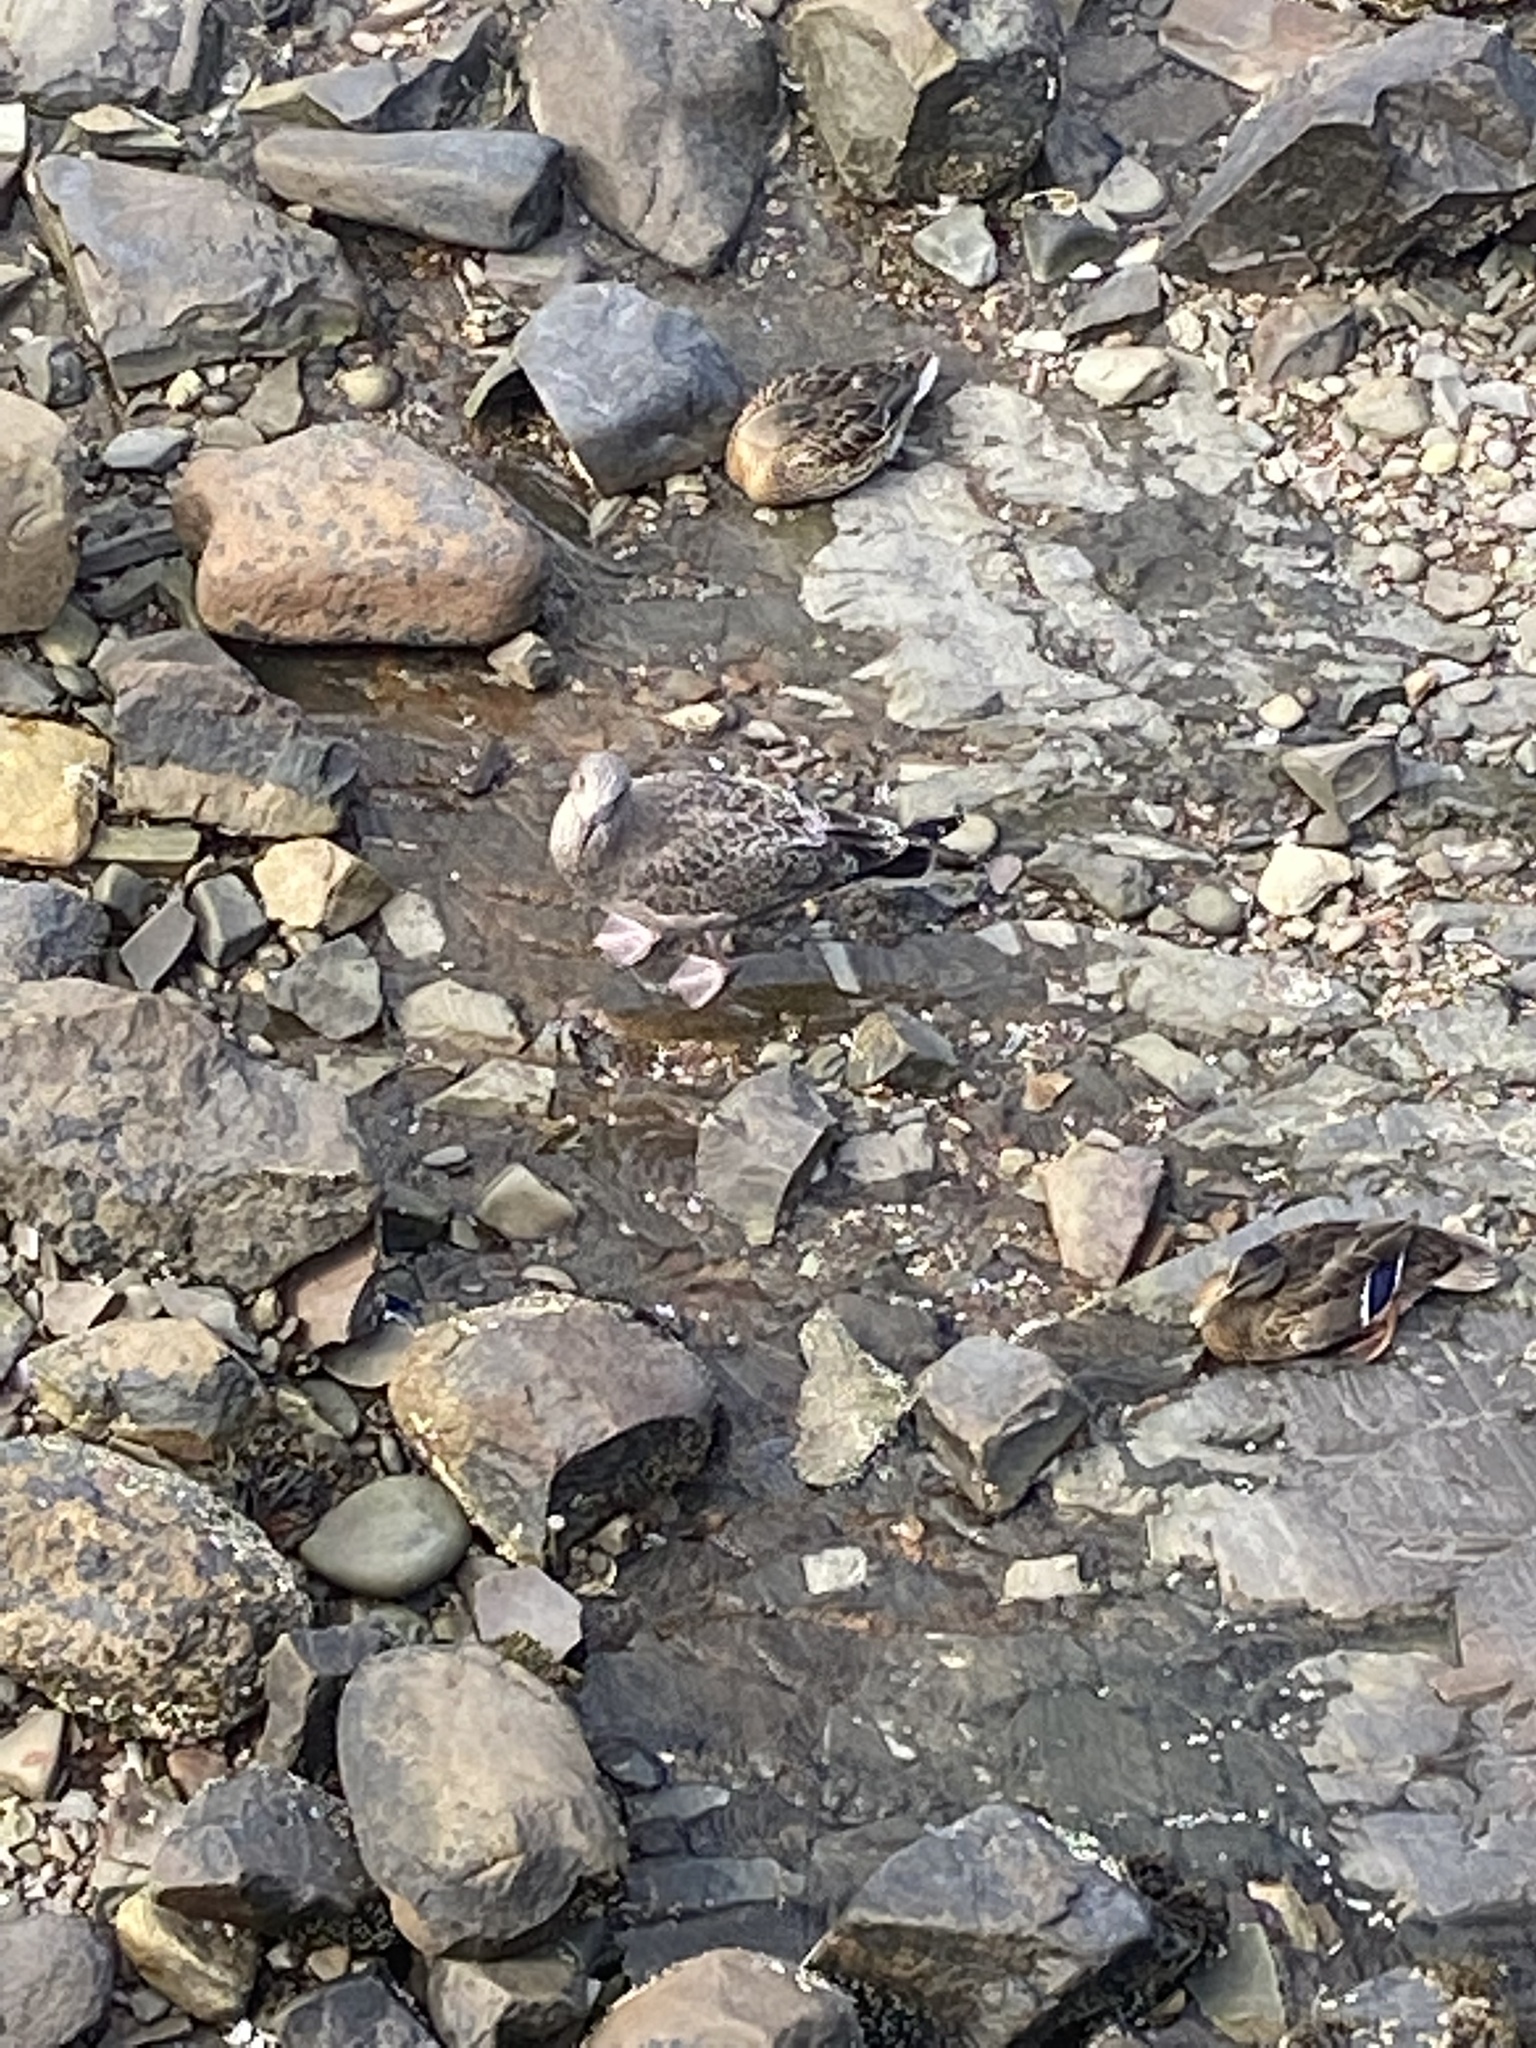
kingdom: Animalia
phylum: Chordata
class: Aves
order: Charadriiformes
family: Laridae
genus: Larus
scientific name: Larus argentatus
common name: Herring gull
